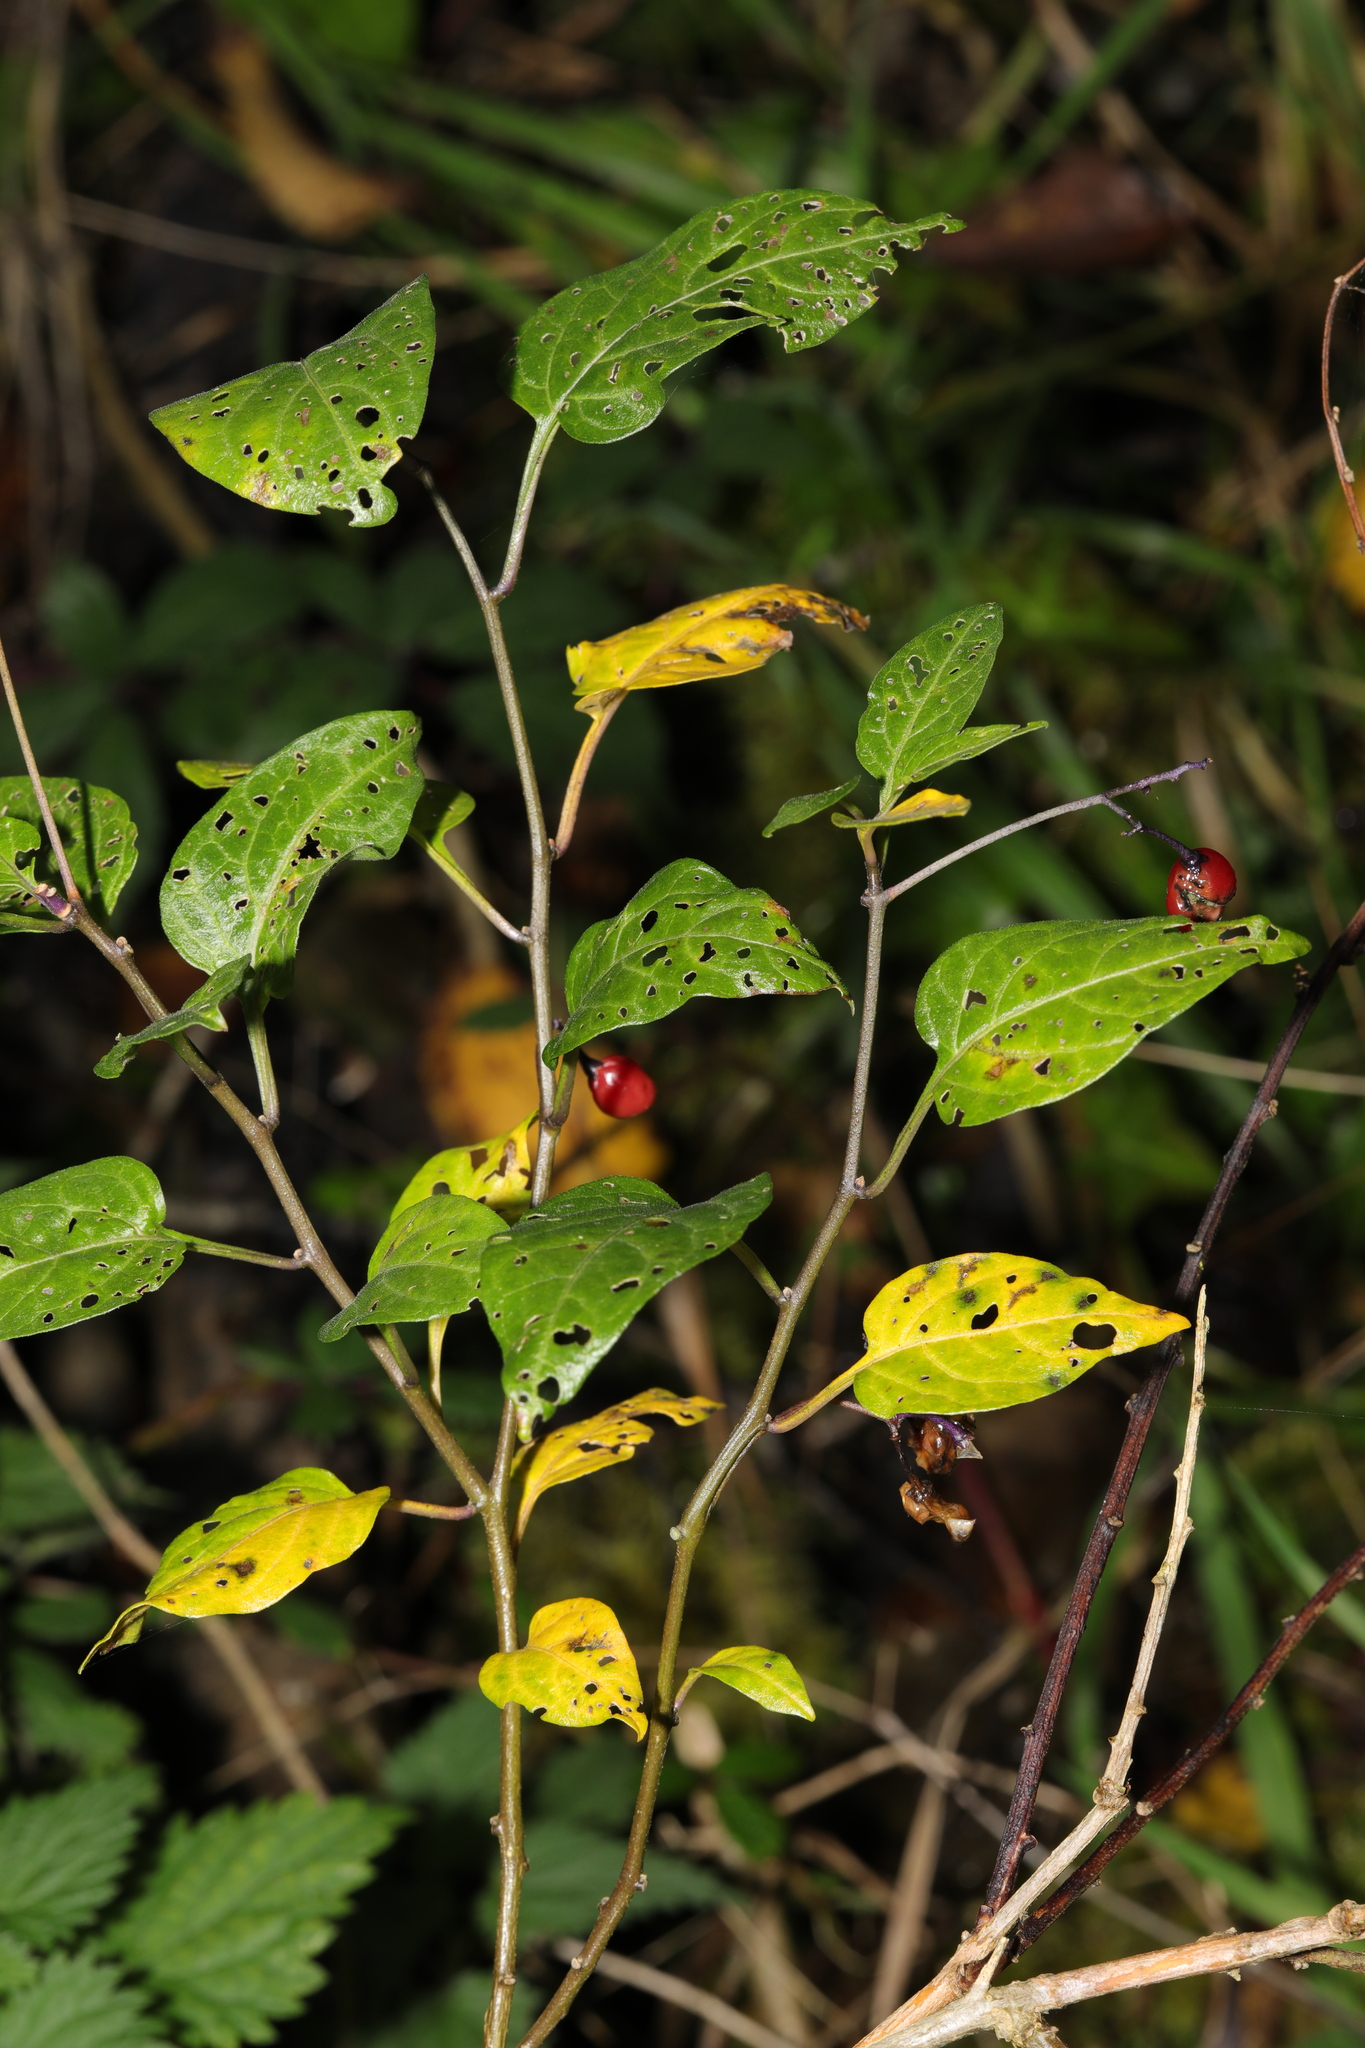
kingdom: Plantae
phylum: Tracheophyta
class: Magnoliopsida
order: Solanales
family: Solanaceae
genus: Solanum
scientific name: Solanum dulcamara
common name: Climbing nightshade
